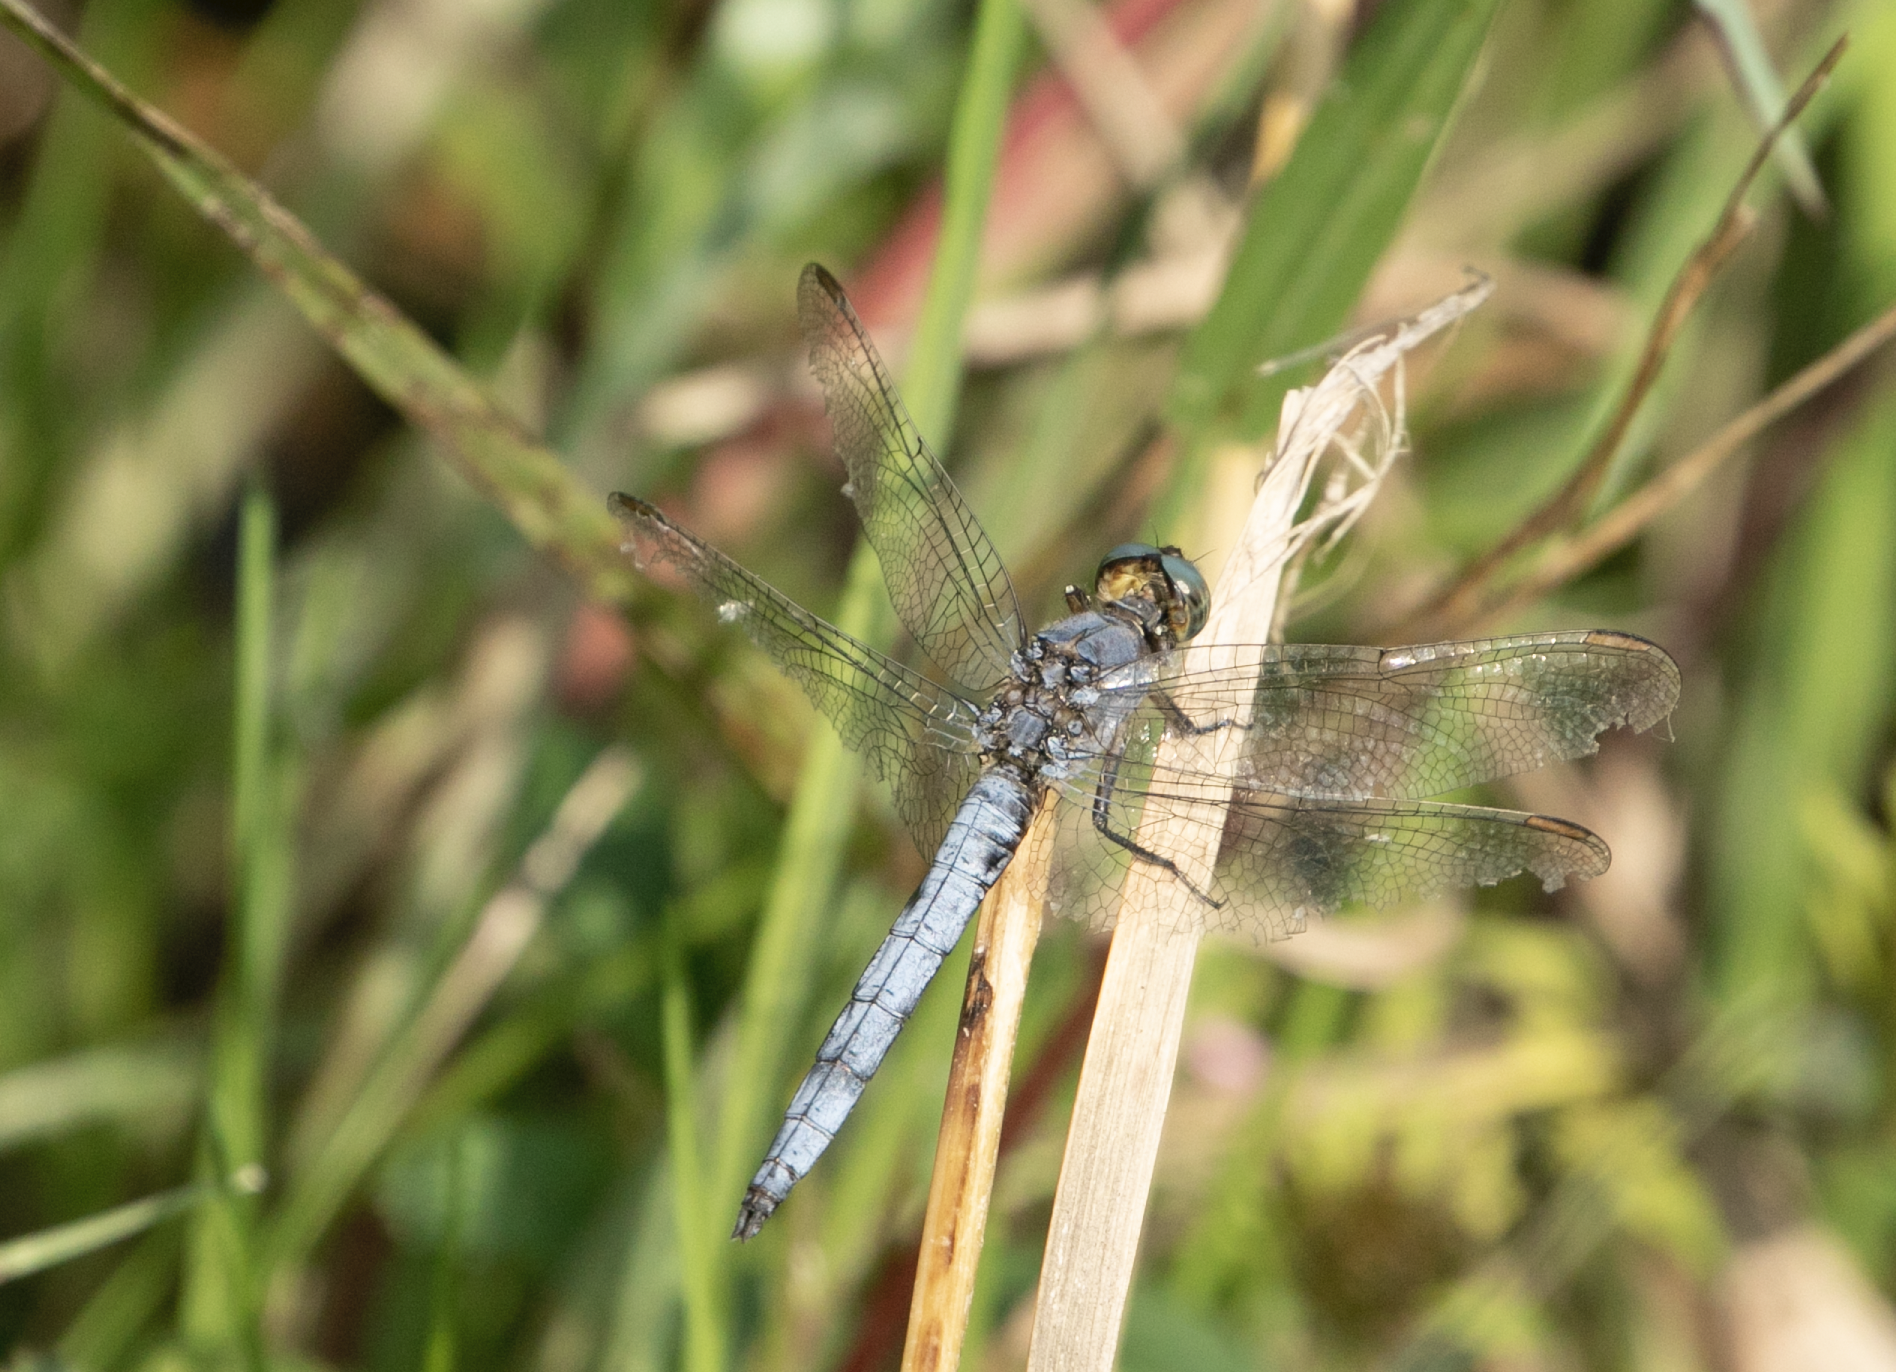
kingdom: Animalia
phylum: Arthropoda
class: Insecta
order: Odonata
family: Libellulidae
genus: Orthetrum
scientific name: Orthetrum coerulescens
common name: Keeled skimmer
